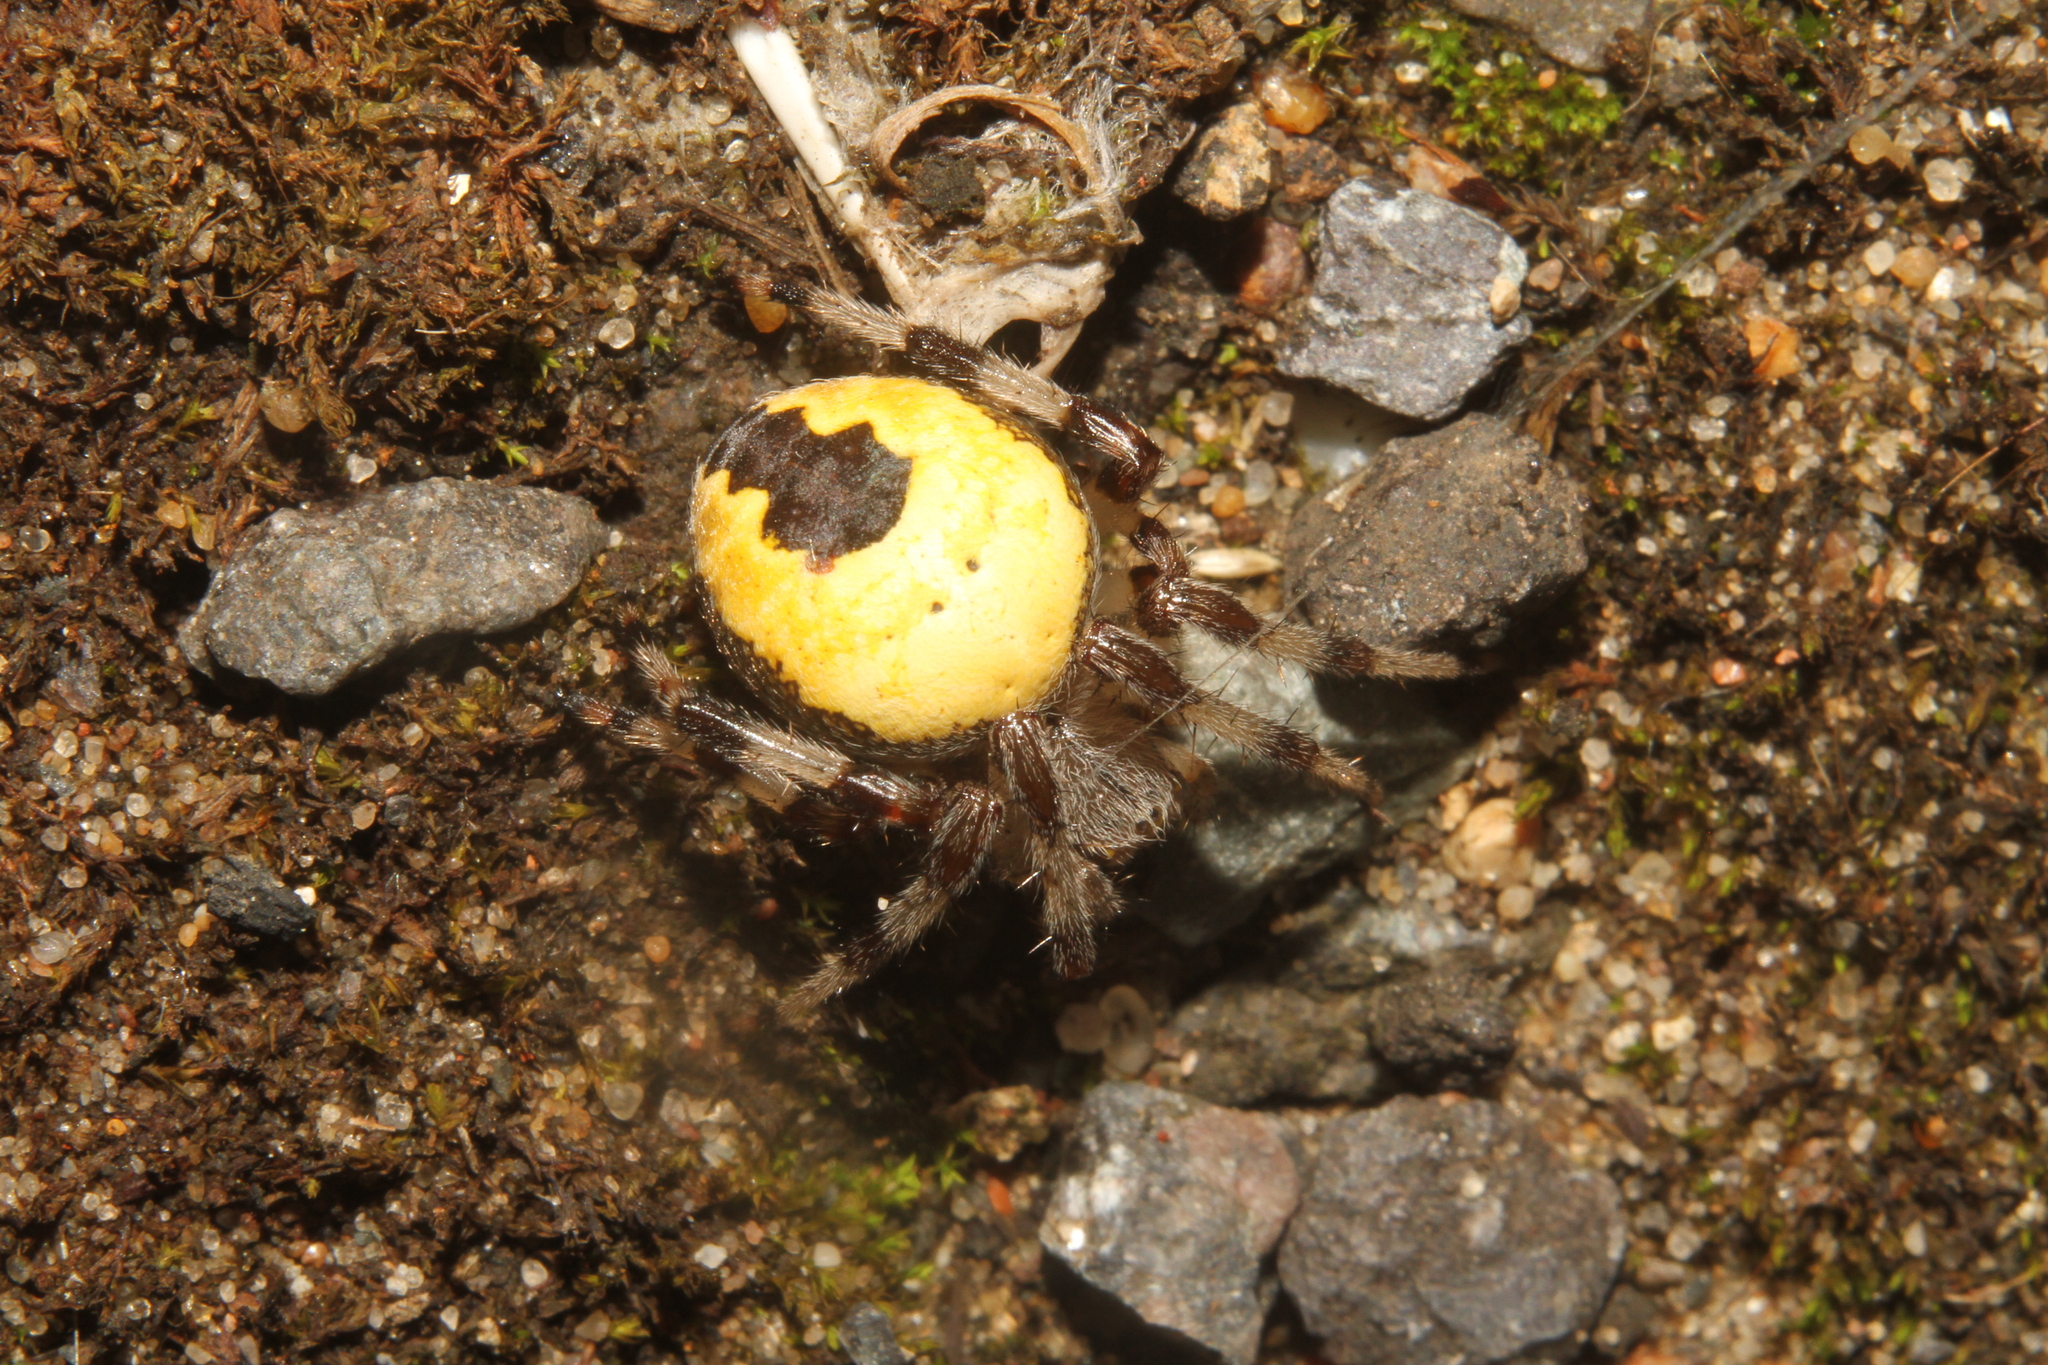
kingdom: Animalia
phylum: Arthropoda
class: Arachnida
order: Araneae
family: Araneidae
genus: Araneus
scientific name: Araneus marmoreus
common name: Marbled orbweaver
